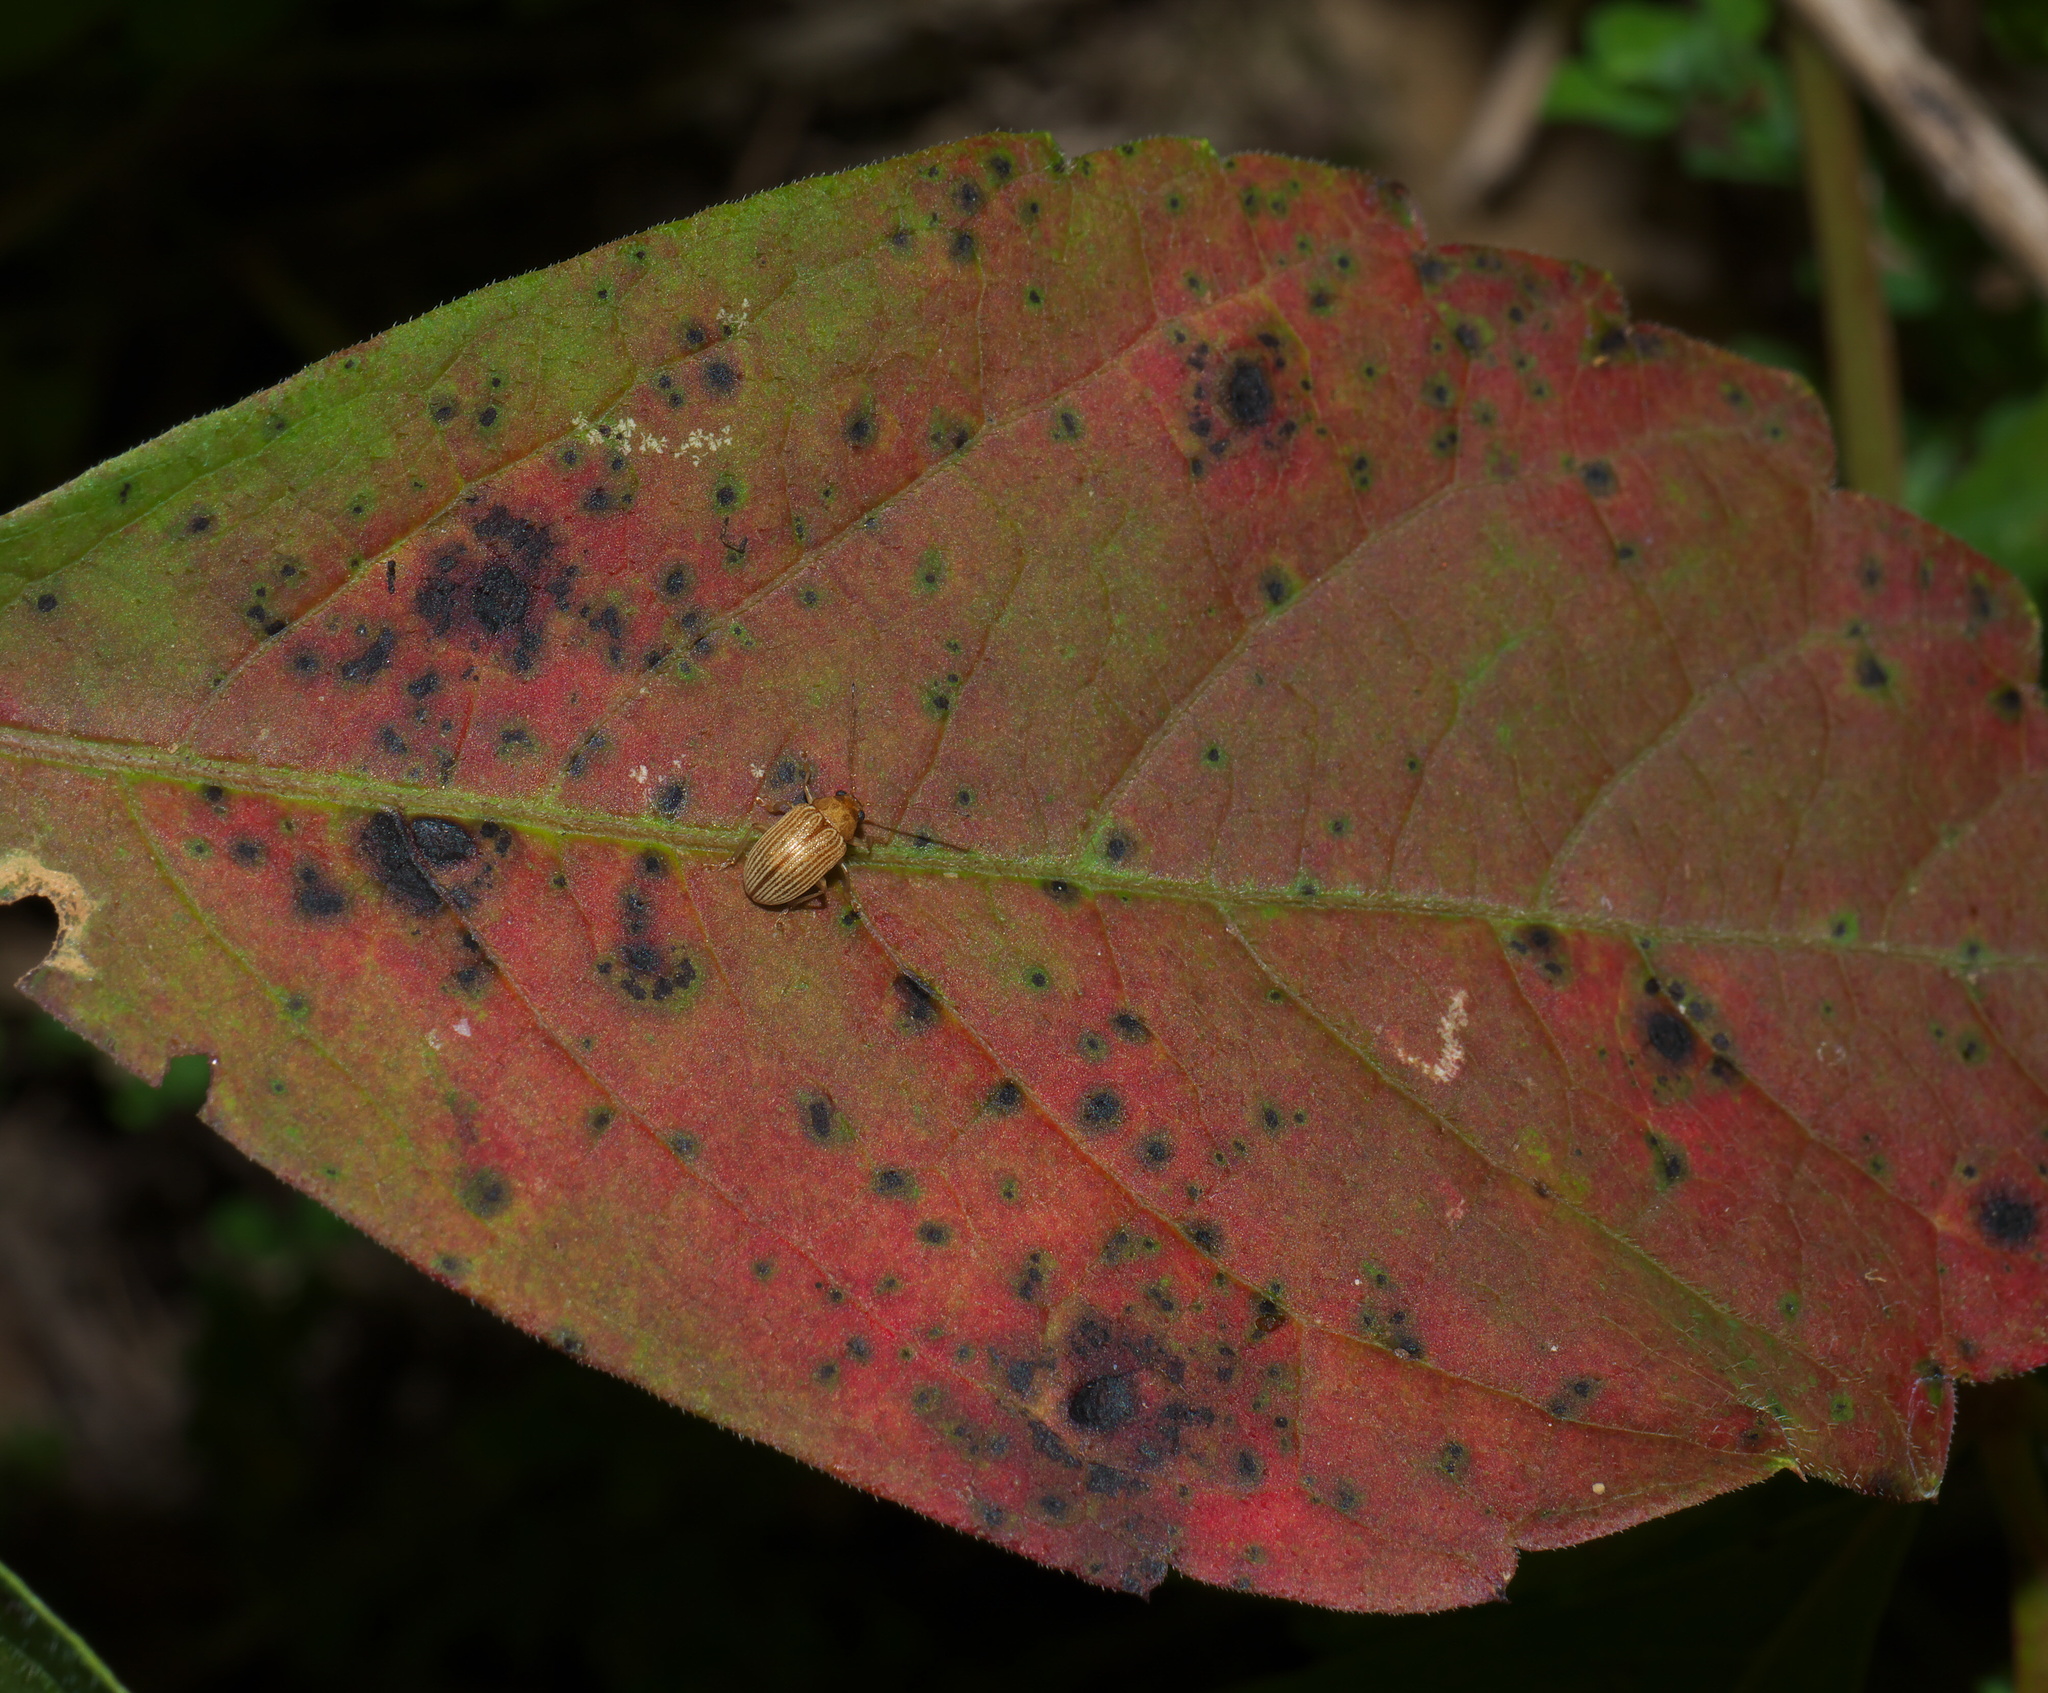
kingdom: Animalia
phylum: Arthropoda
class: Insecta
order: Coleoptera
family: Chrysomelidae
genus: Colaspis
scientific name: Colaspis brunnea
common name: Grape colaspis
